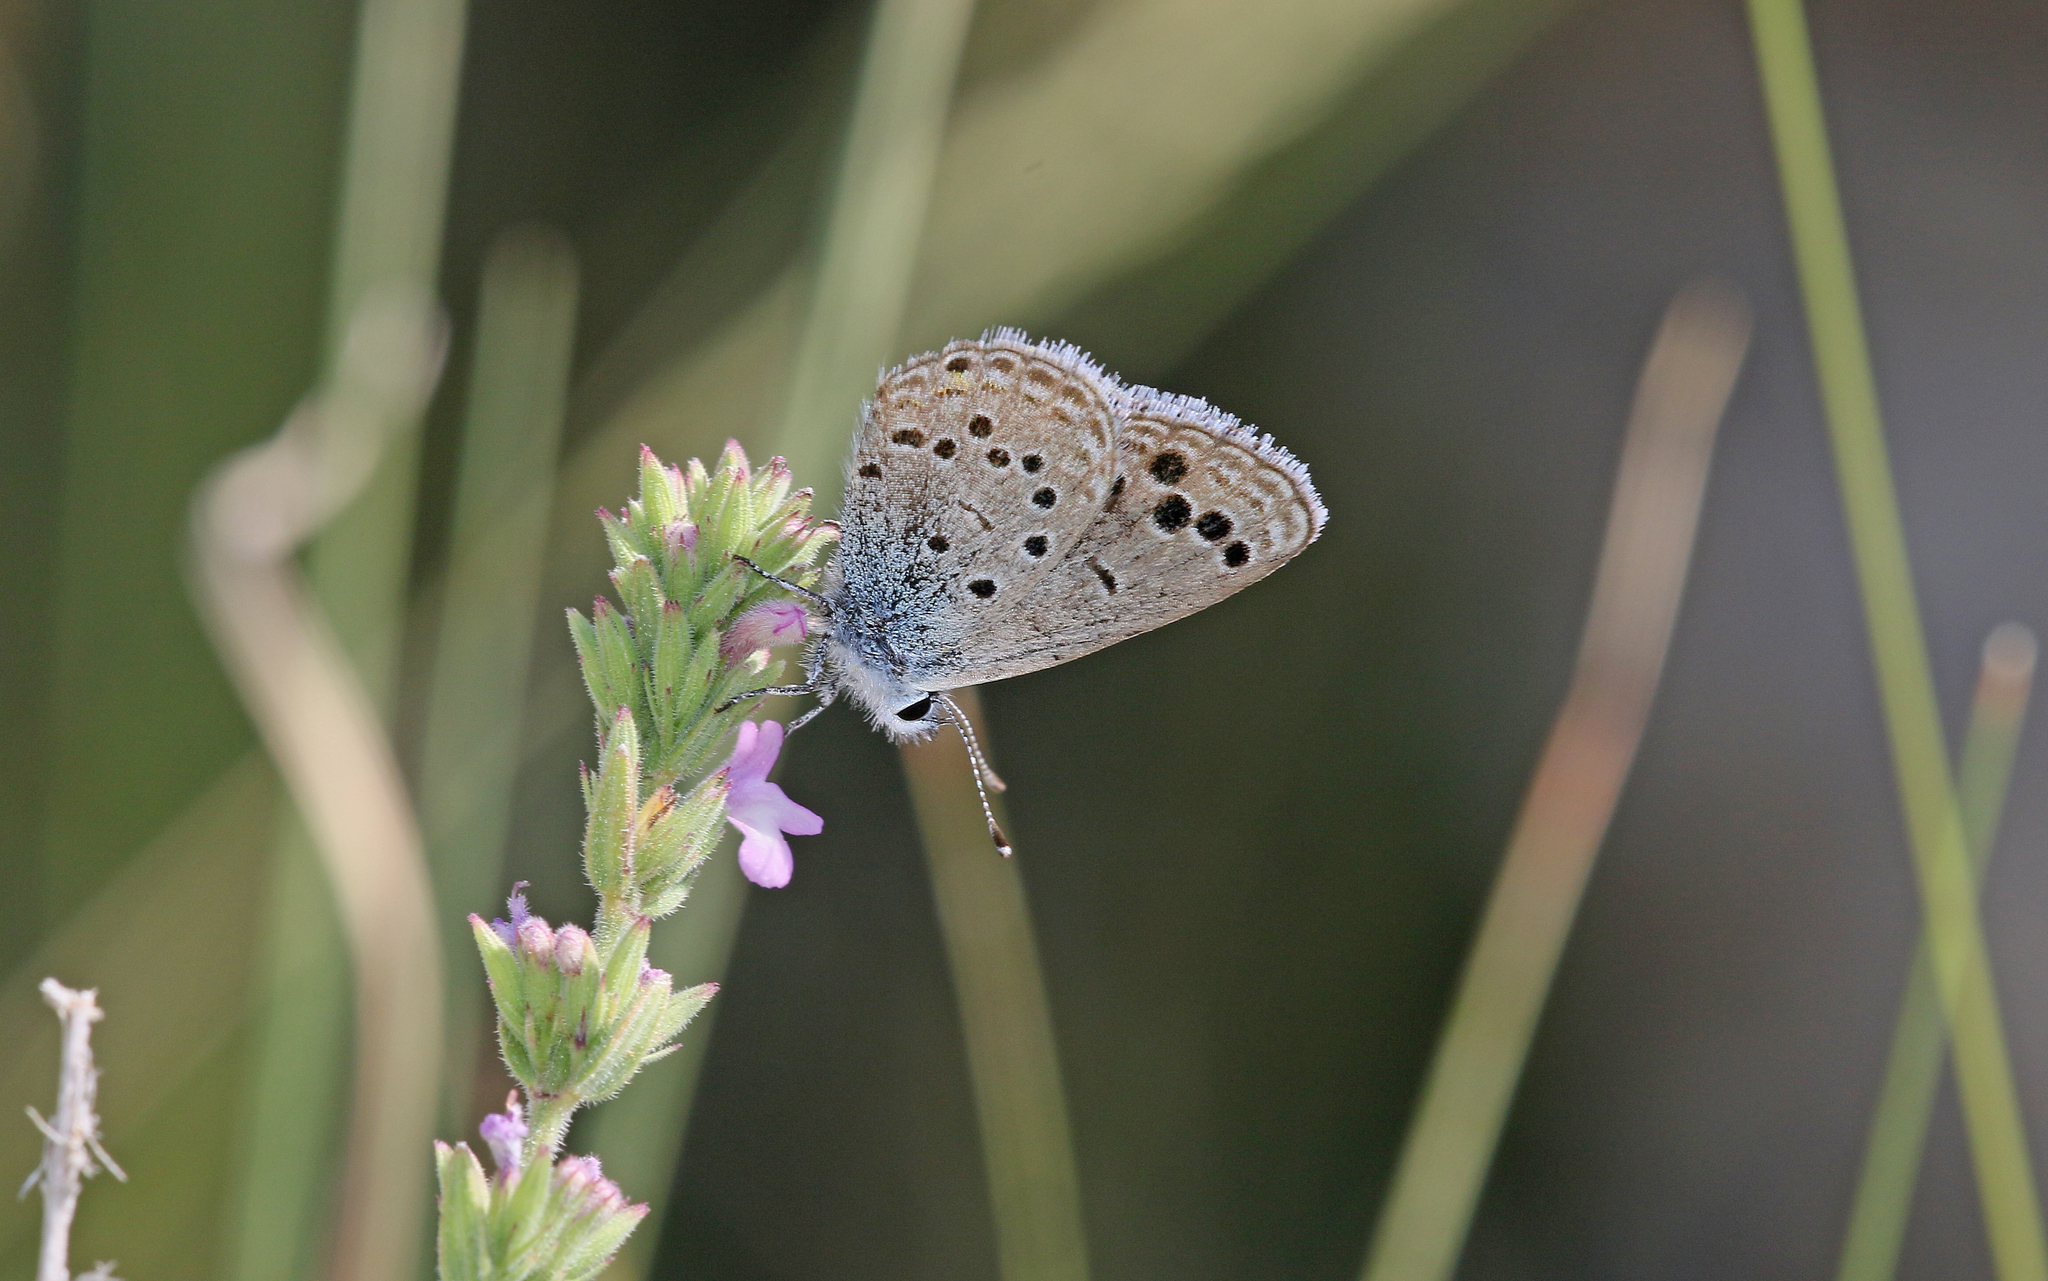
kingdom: Animalia
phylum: Arthropoda
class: Insecta
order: Lepidoptera
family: Lycaenidae
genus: Actizera
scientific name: Actizera panagaea
